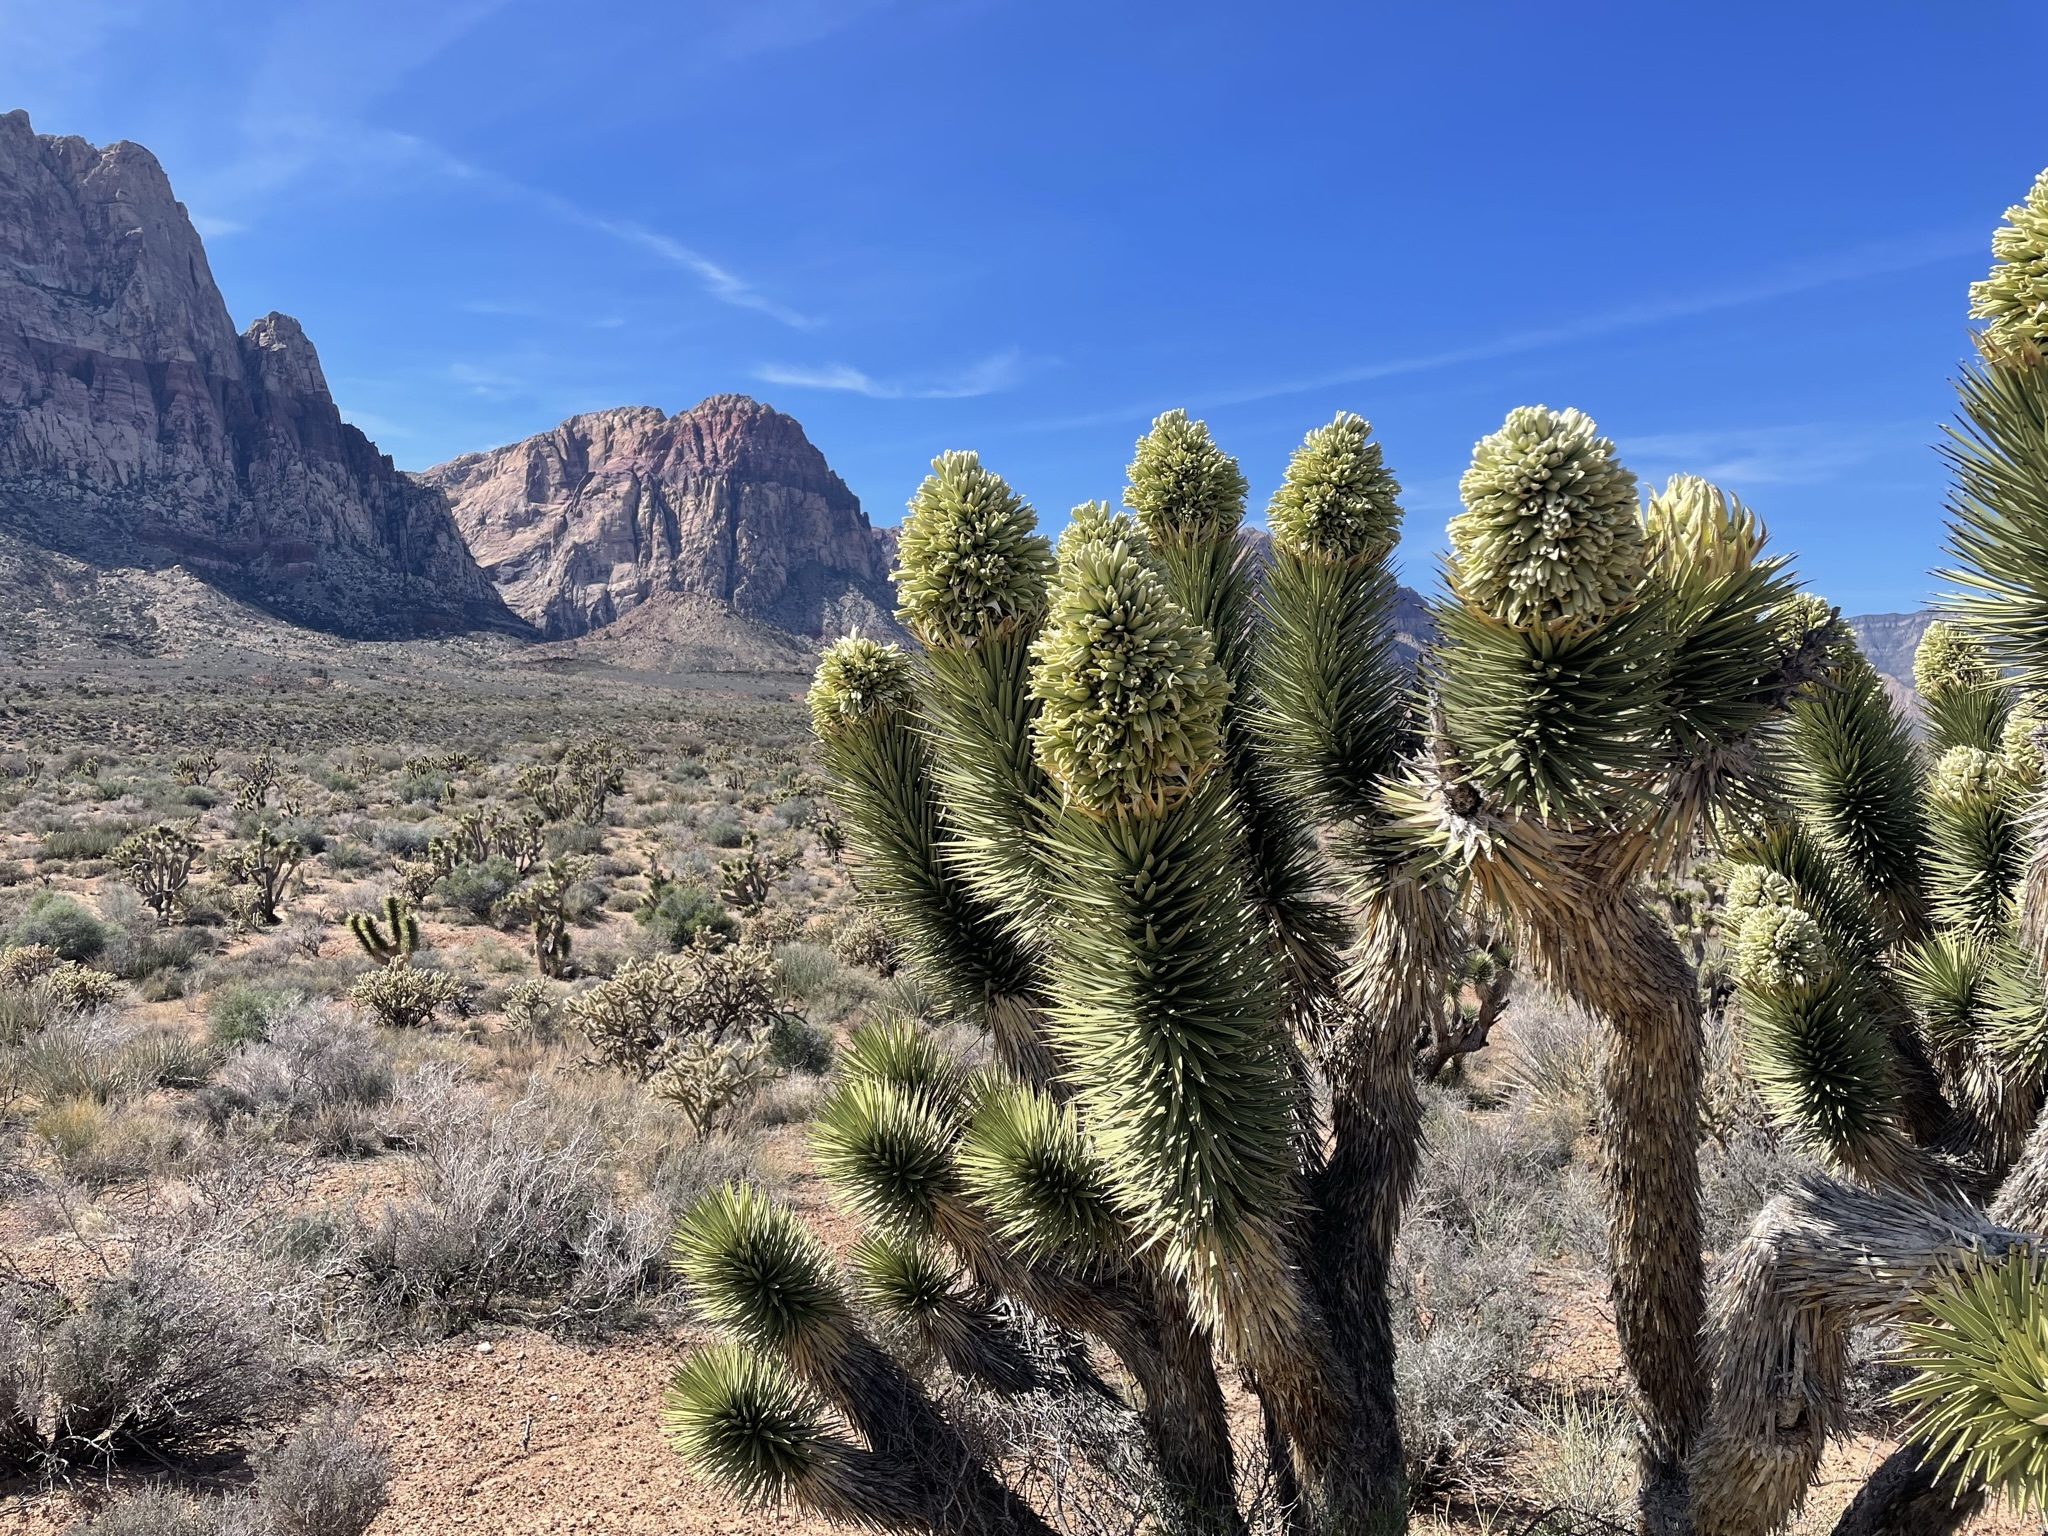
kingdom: Plantae
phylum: Tracheophyta
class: Liliopsida
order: Asparagales
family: Asparagaceae
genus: Yucca
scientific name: Yucca brevifolia
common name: Joshua tree
